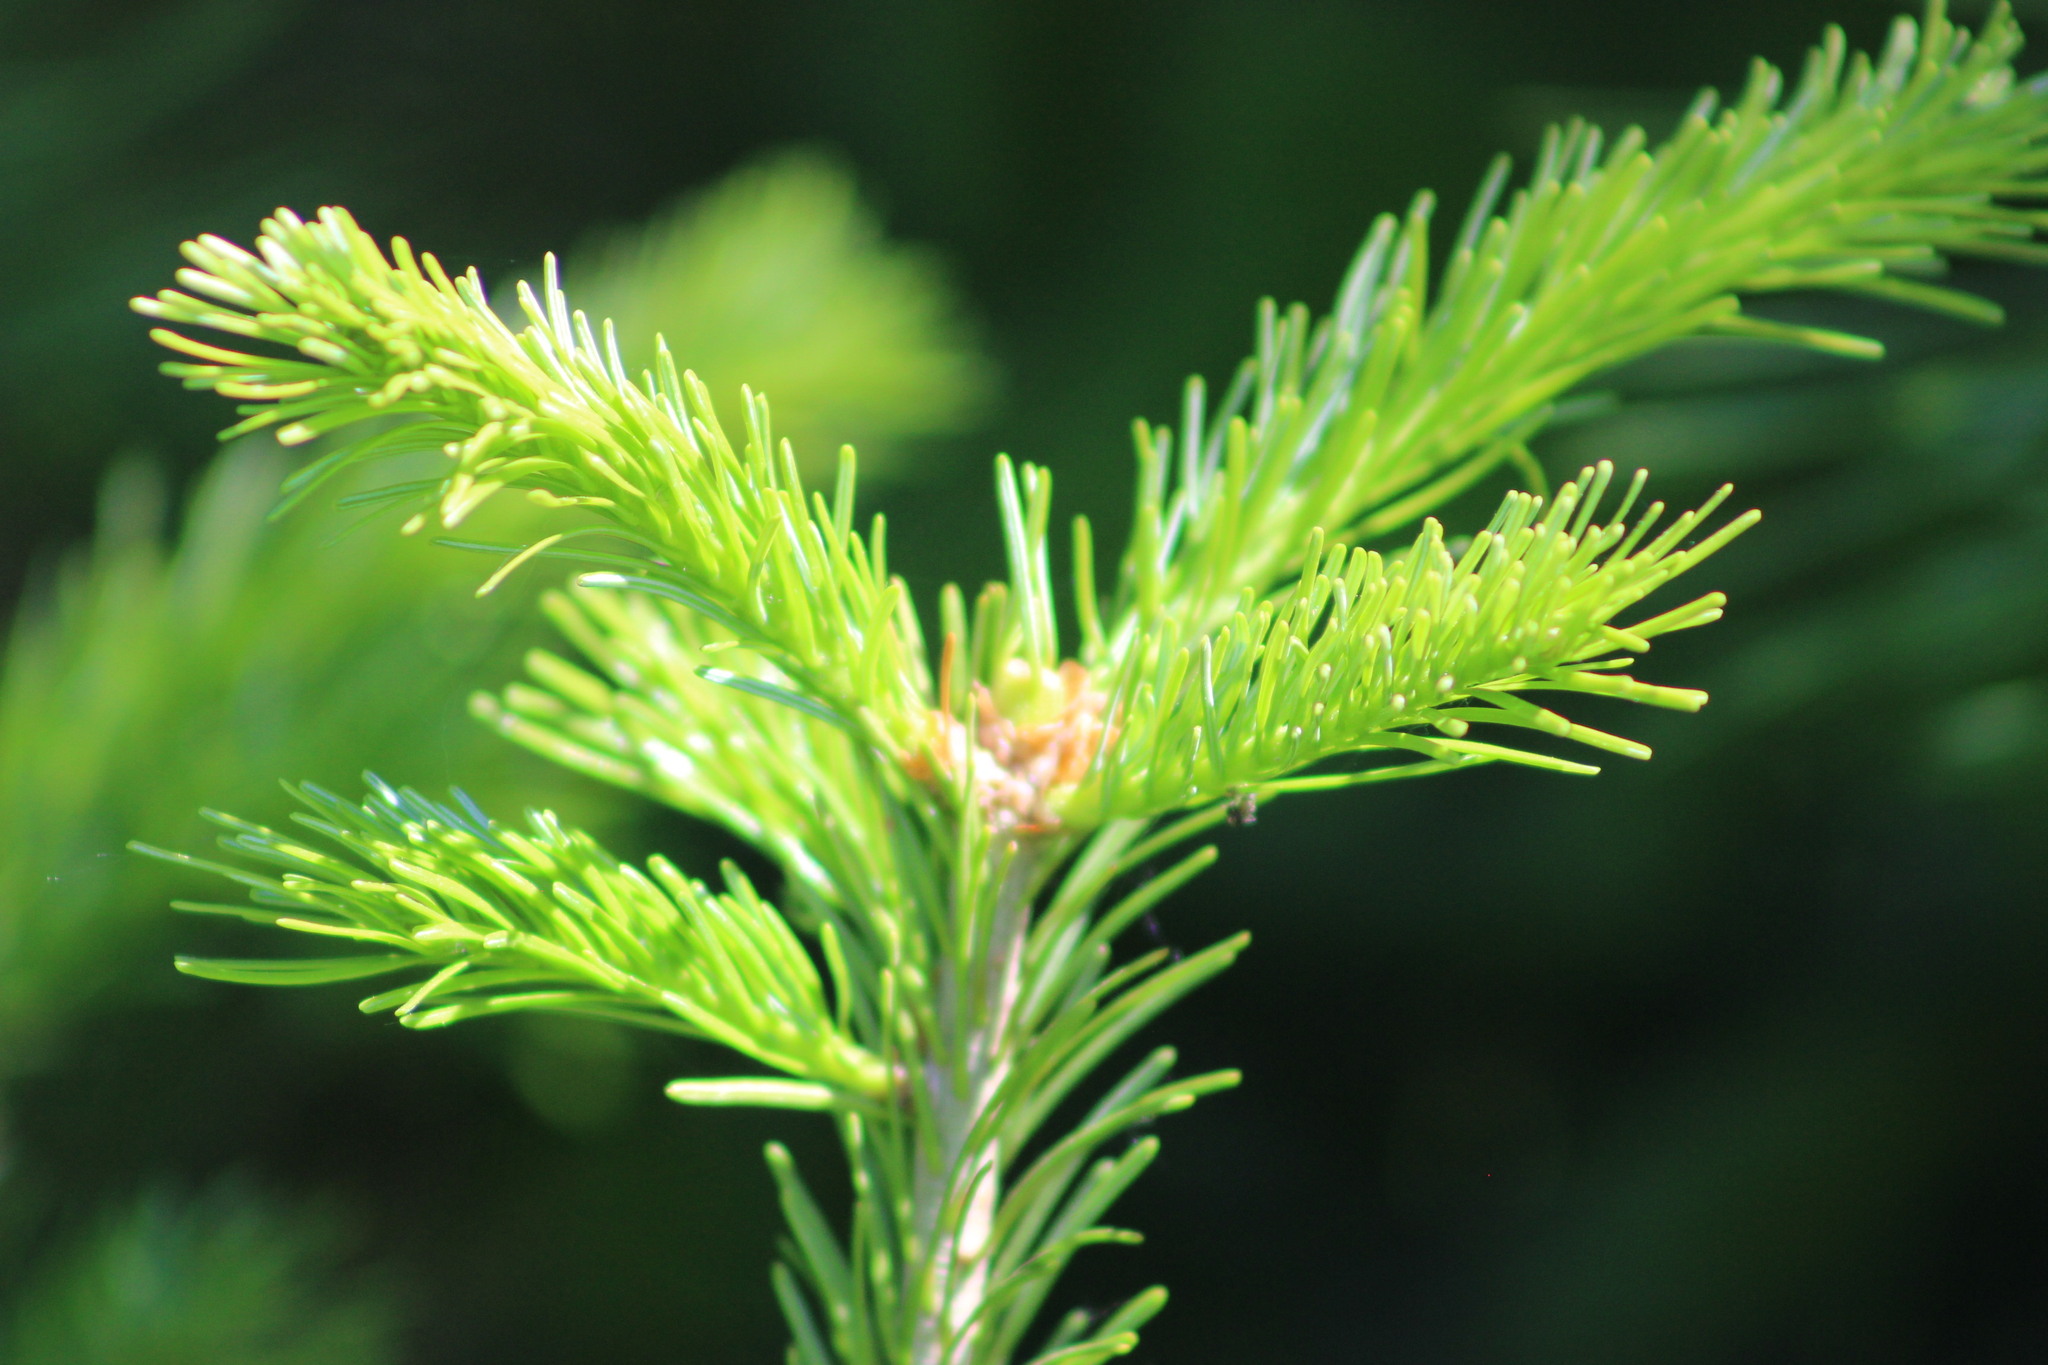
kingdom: Plantae
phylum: Tracheophyta
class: Pinopsida
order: Pinales
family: Pinaceae
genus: Abies
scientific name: Abies sibirica
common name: Siberian fir
